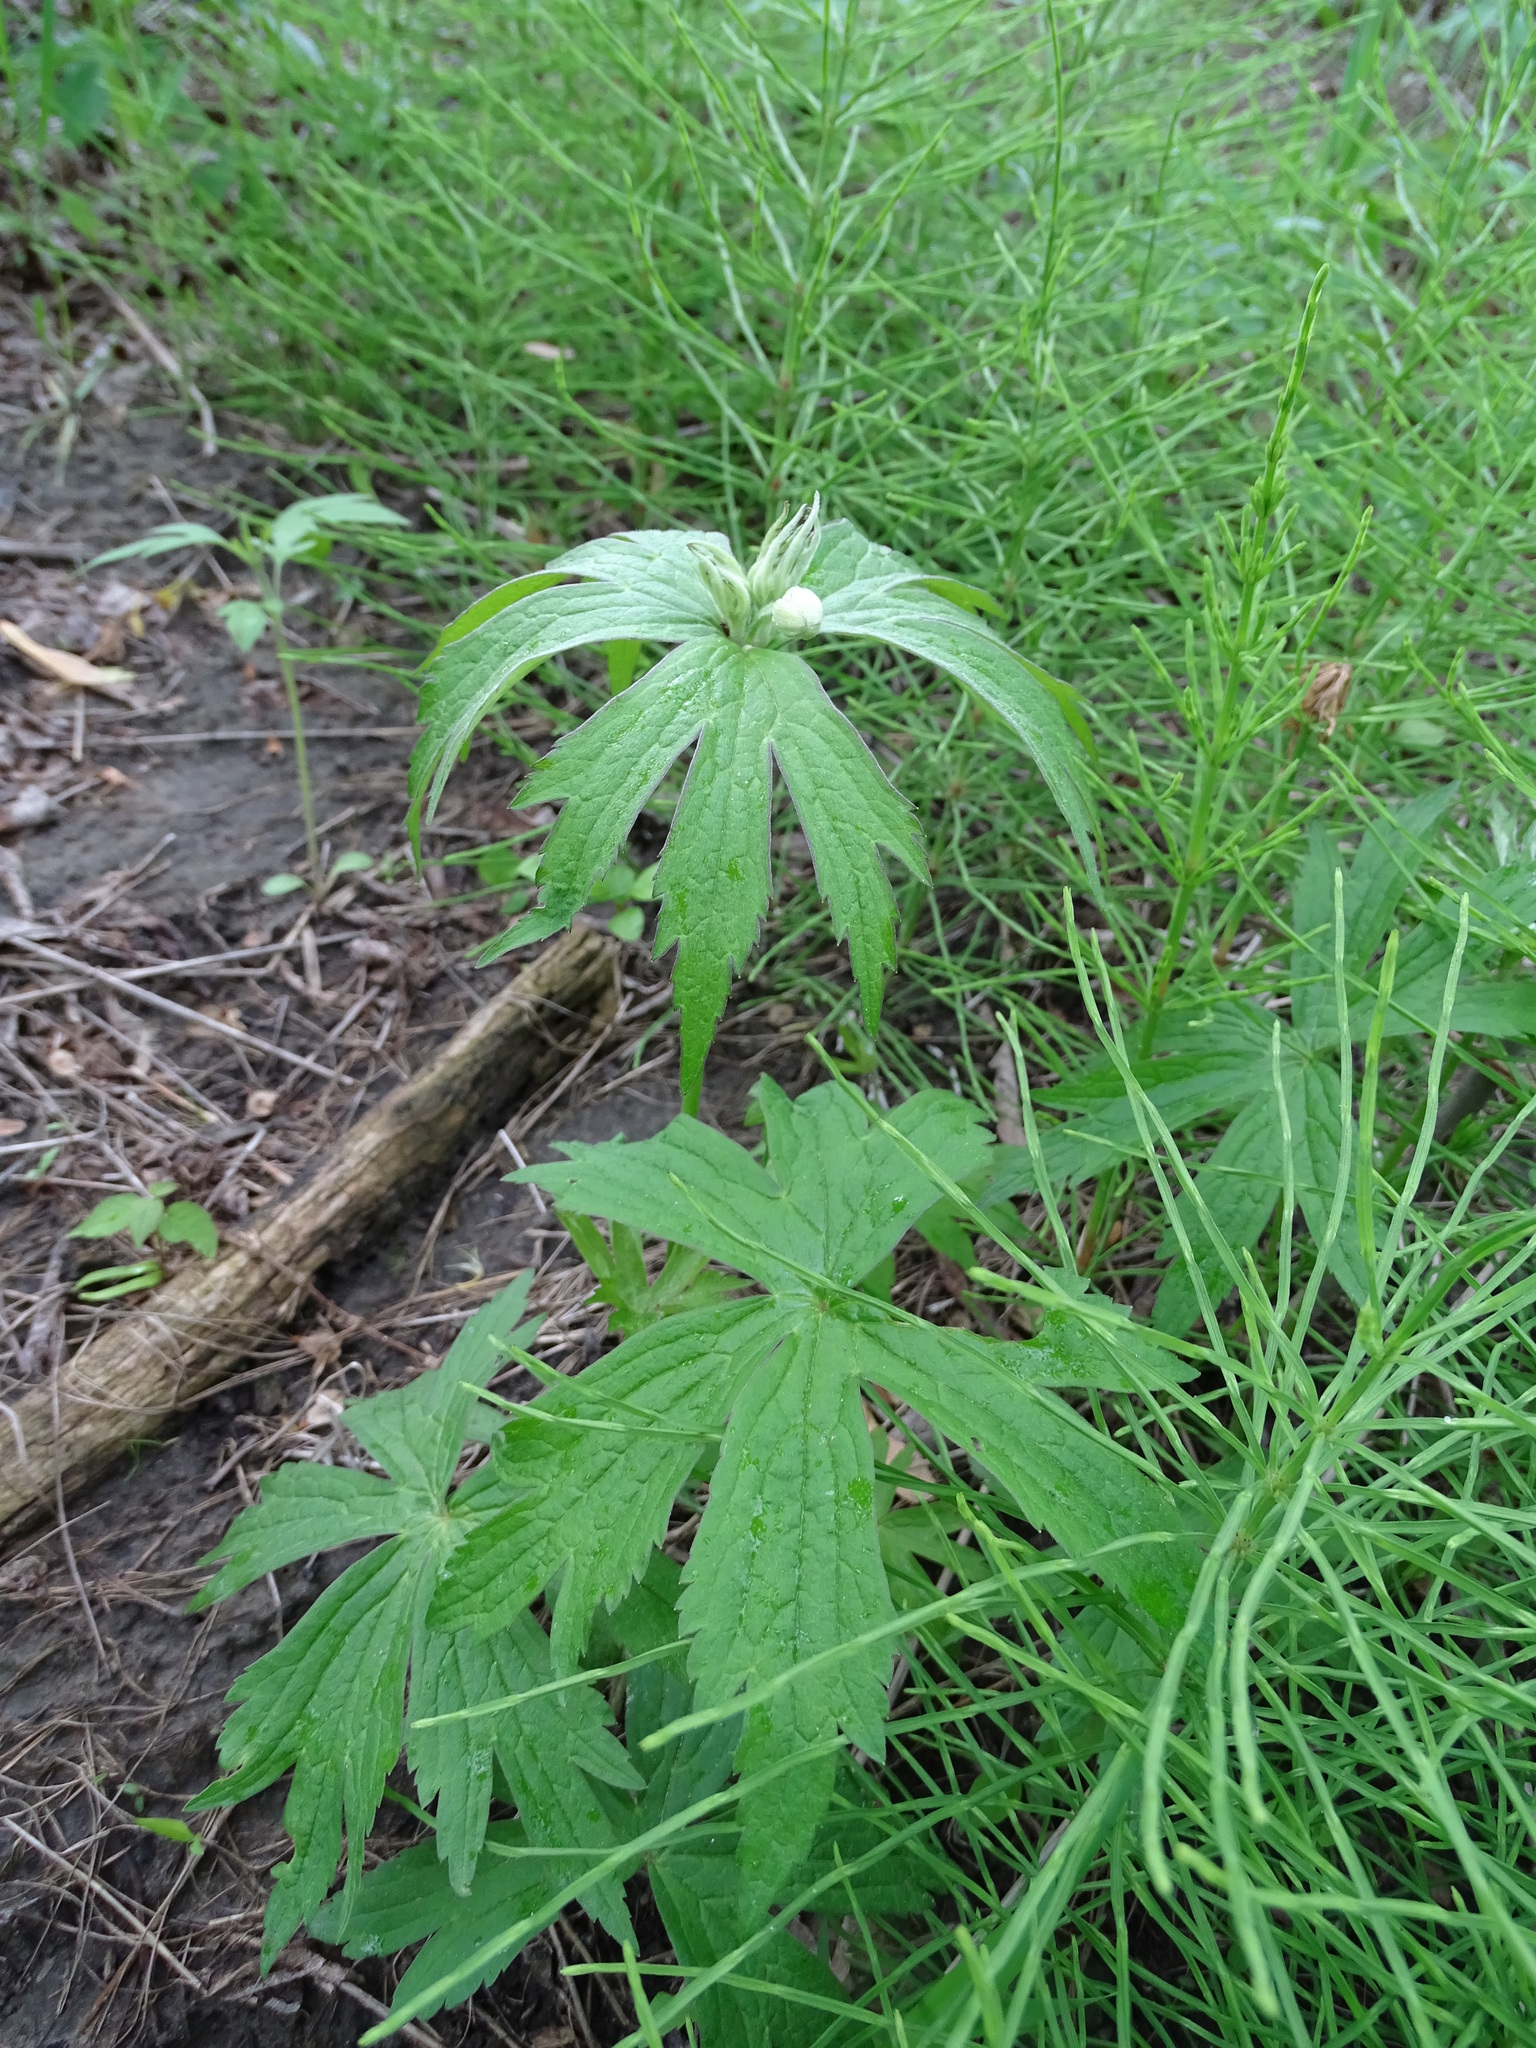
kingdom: Plantae
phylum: Tracheophyta
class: Magnoliopsida
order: Ranunculales
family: Ranunculaceae
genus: Anemonastrum
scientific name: Anemonastrum canadense
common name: Canada anemone
